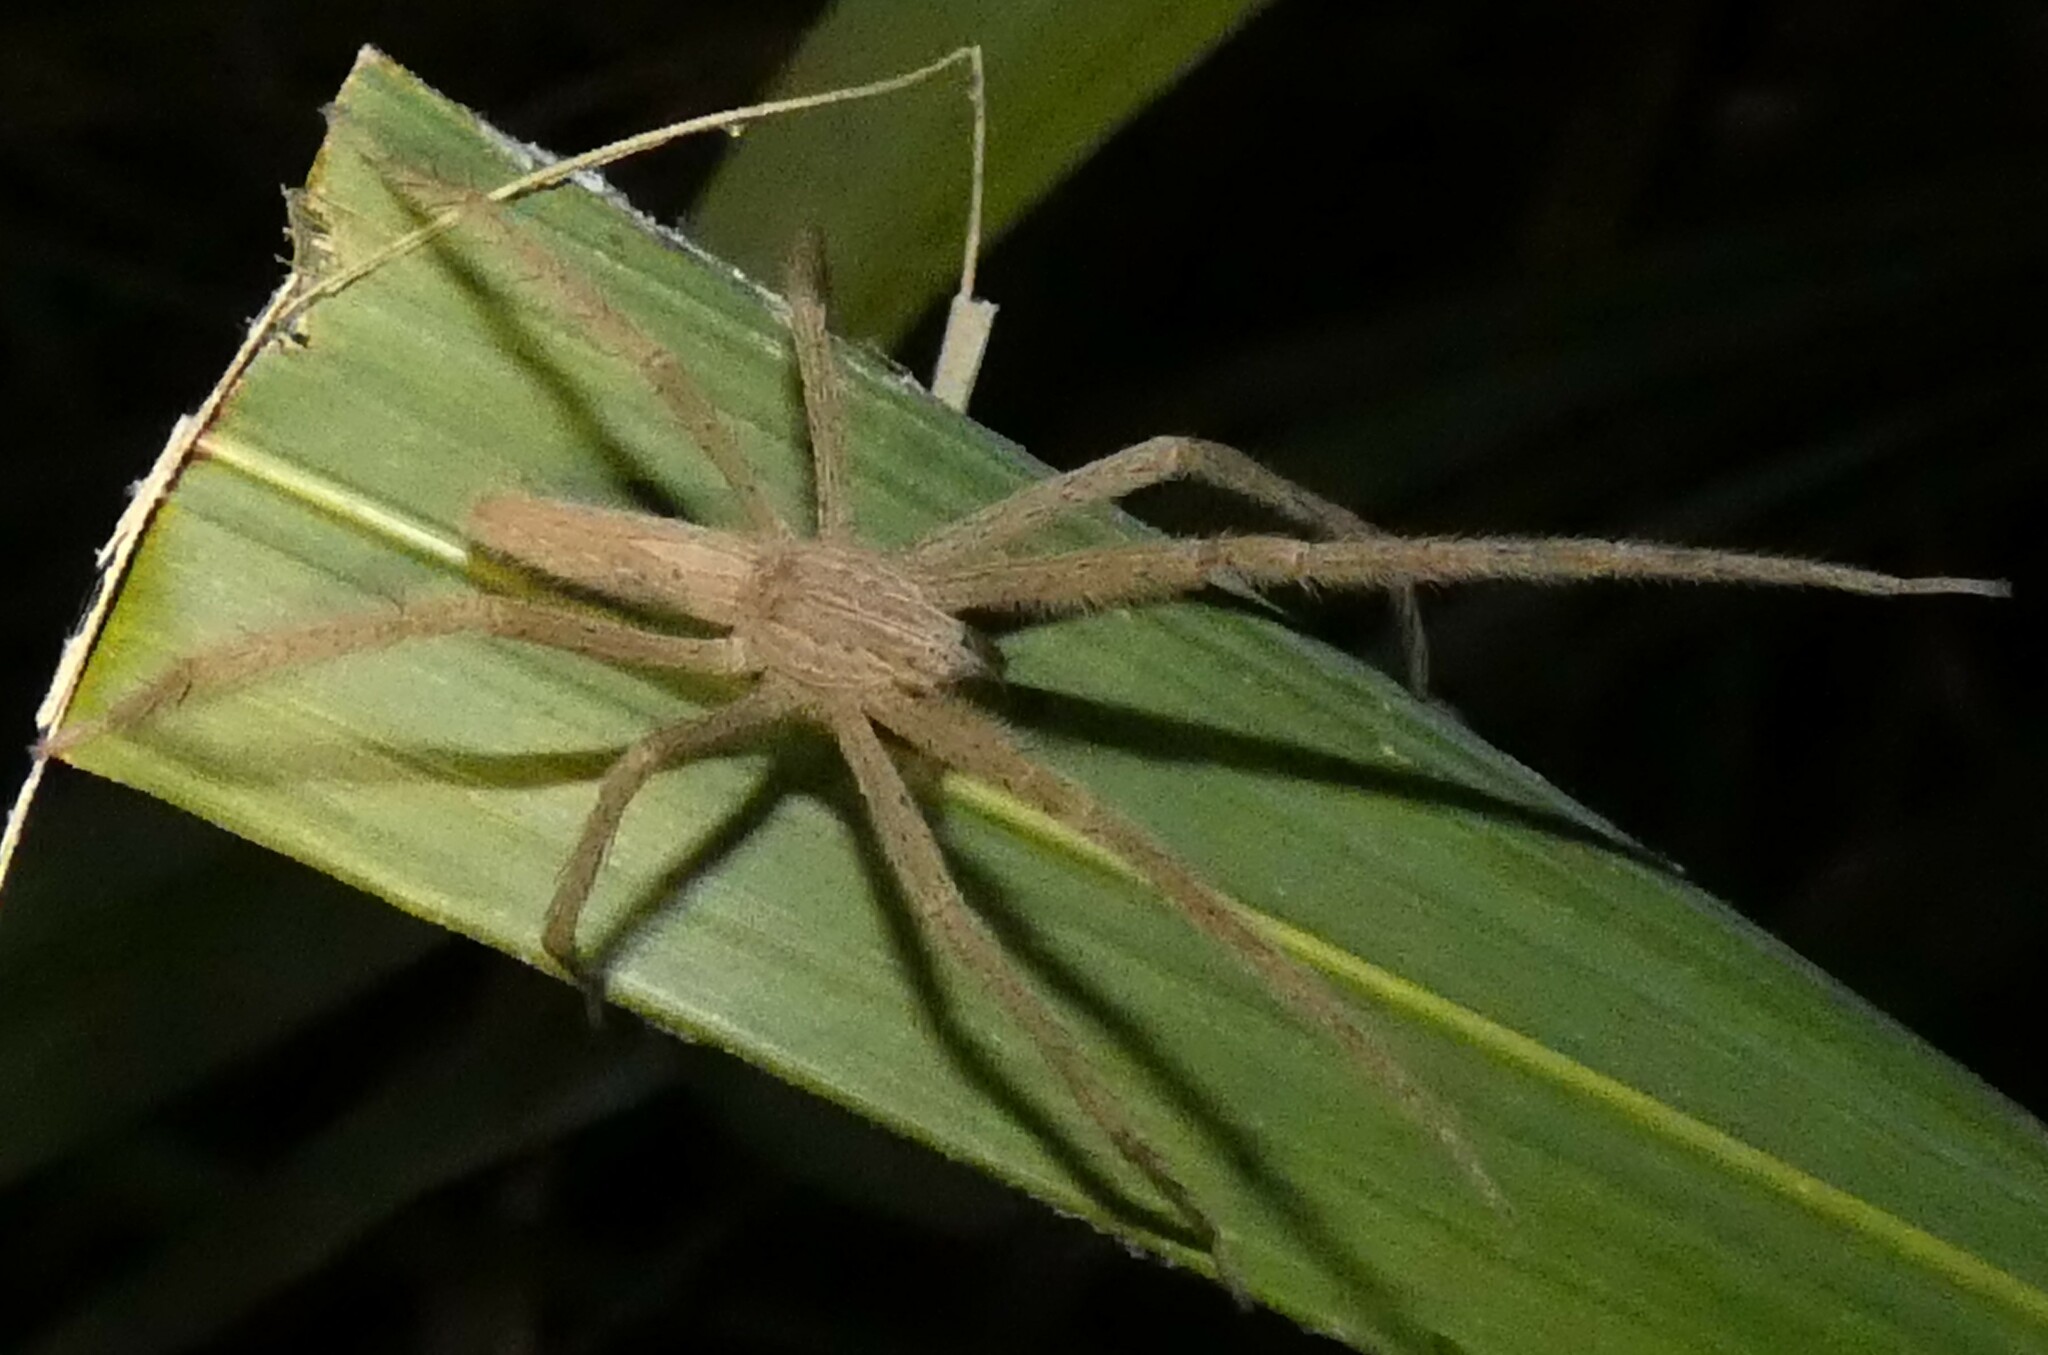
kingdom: Animalia
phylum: Arthropoda
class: Arachnida
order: Araneae
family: Pisauridae
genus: Pisaurina
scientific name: Pisaurina undulata
